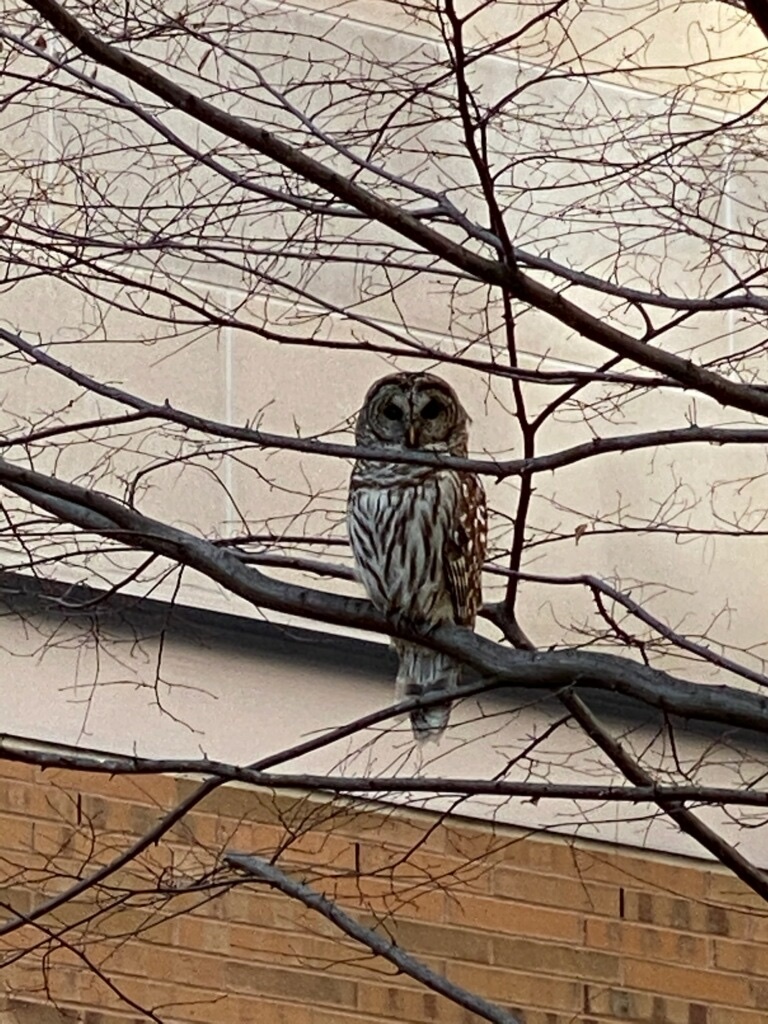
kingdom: Animalia
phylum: Chordata
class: Aves
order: Strigiformes
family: Strigidae
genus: Strix
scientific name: Strix varia
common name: Barred owl
